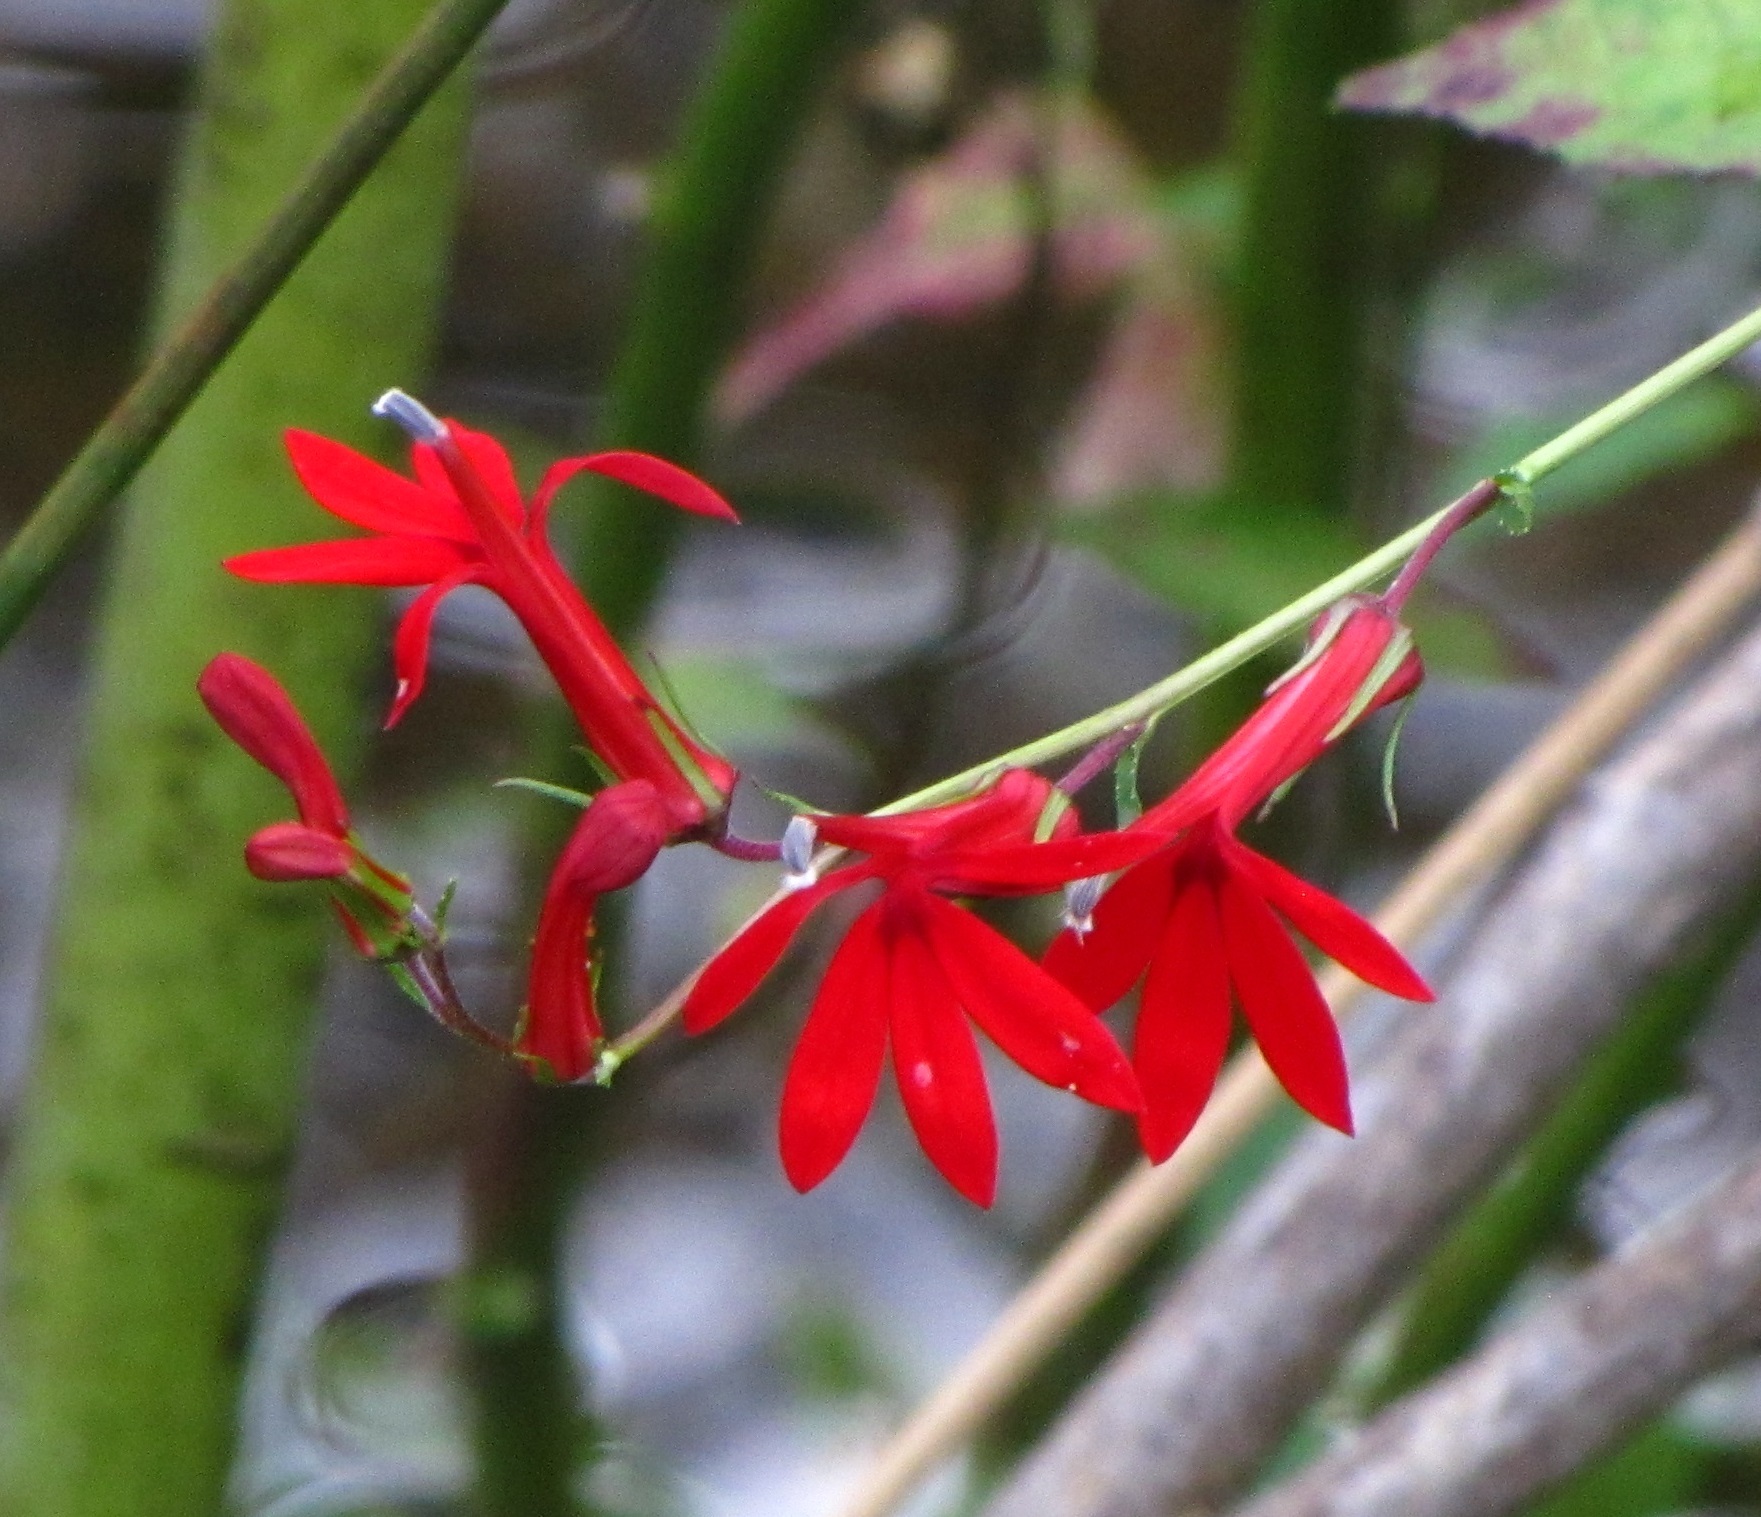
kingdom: Plantae
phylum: Tracheophyta
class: Magnoliopsida
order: Asterales
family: Campanulaceae
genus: Lobelia
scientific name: Lobelia cardinalis
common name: Cardinal flower
